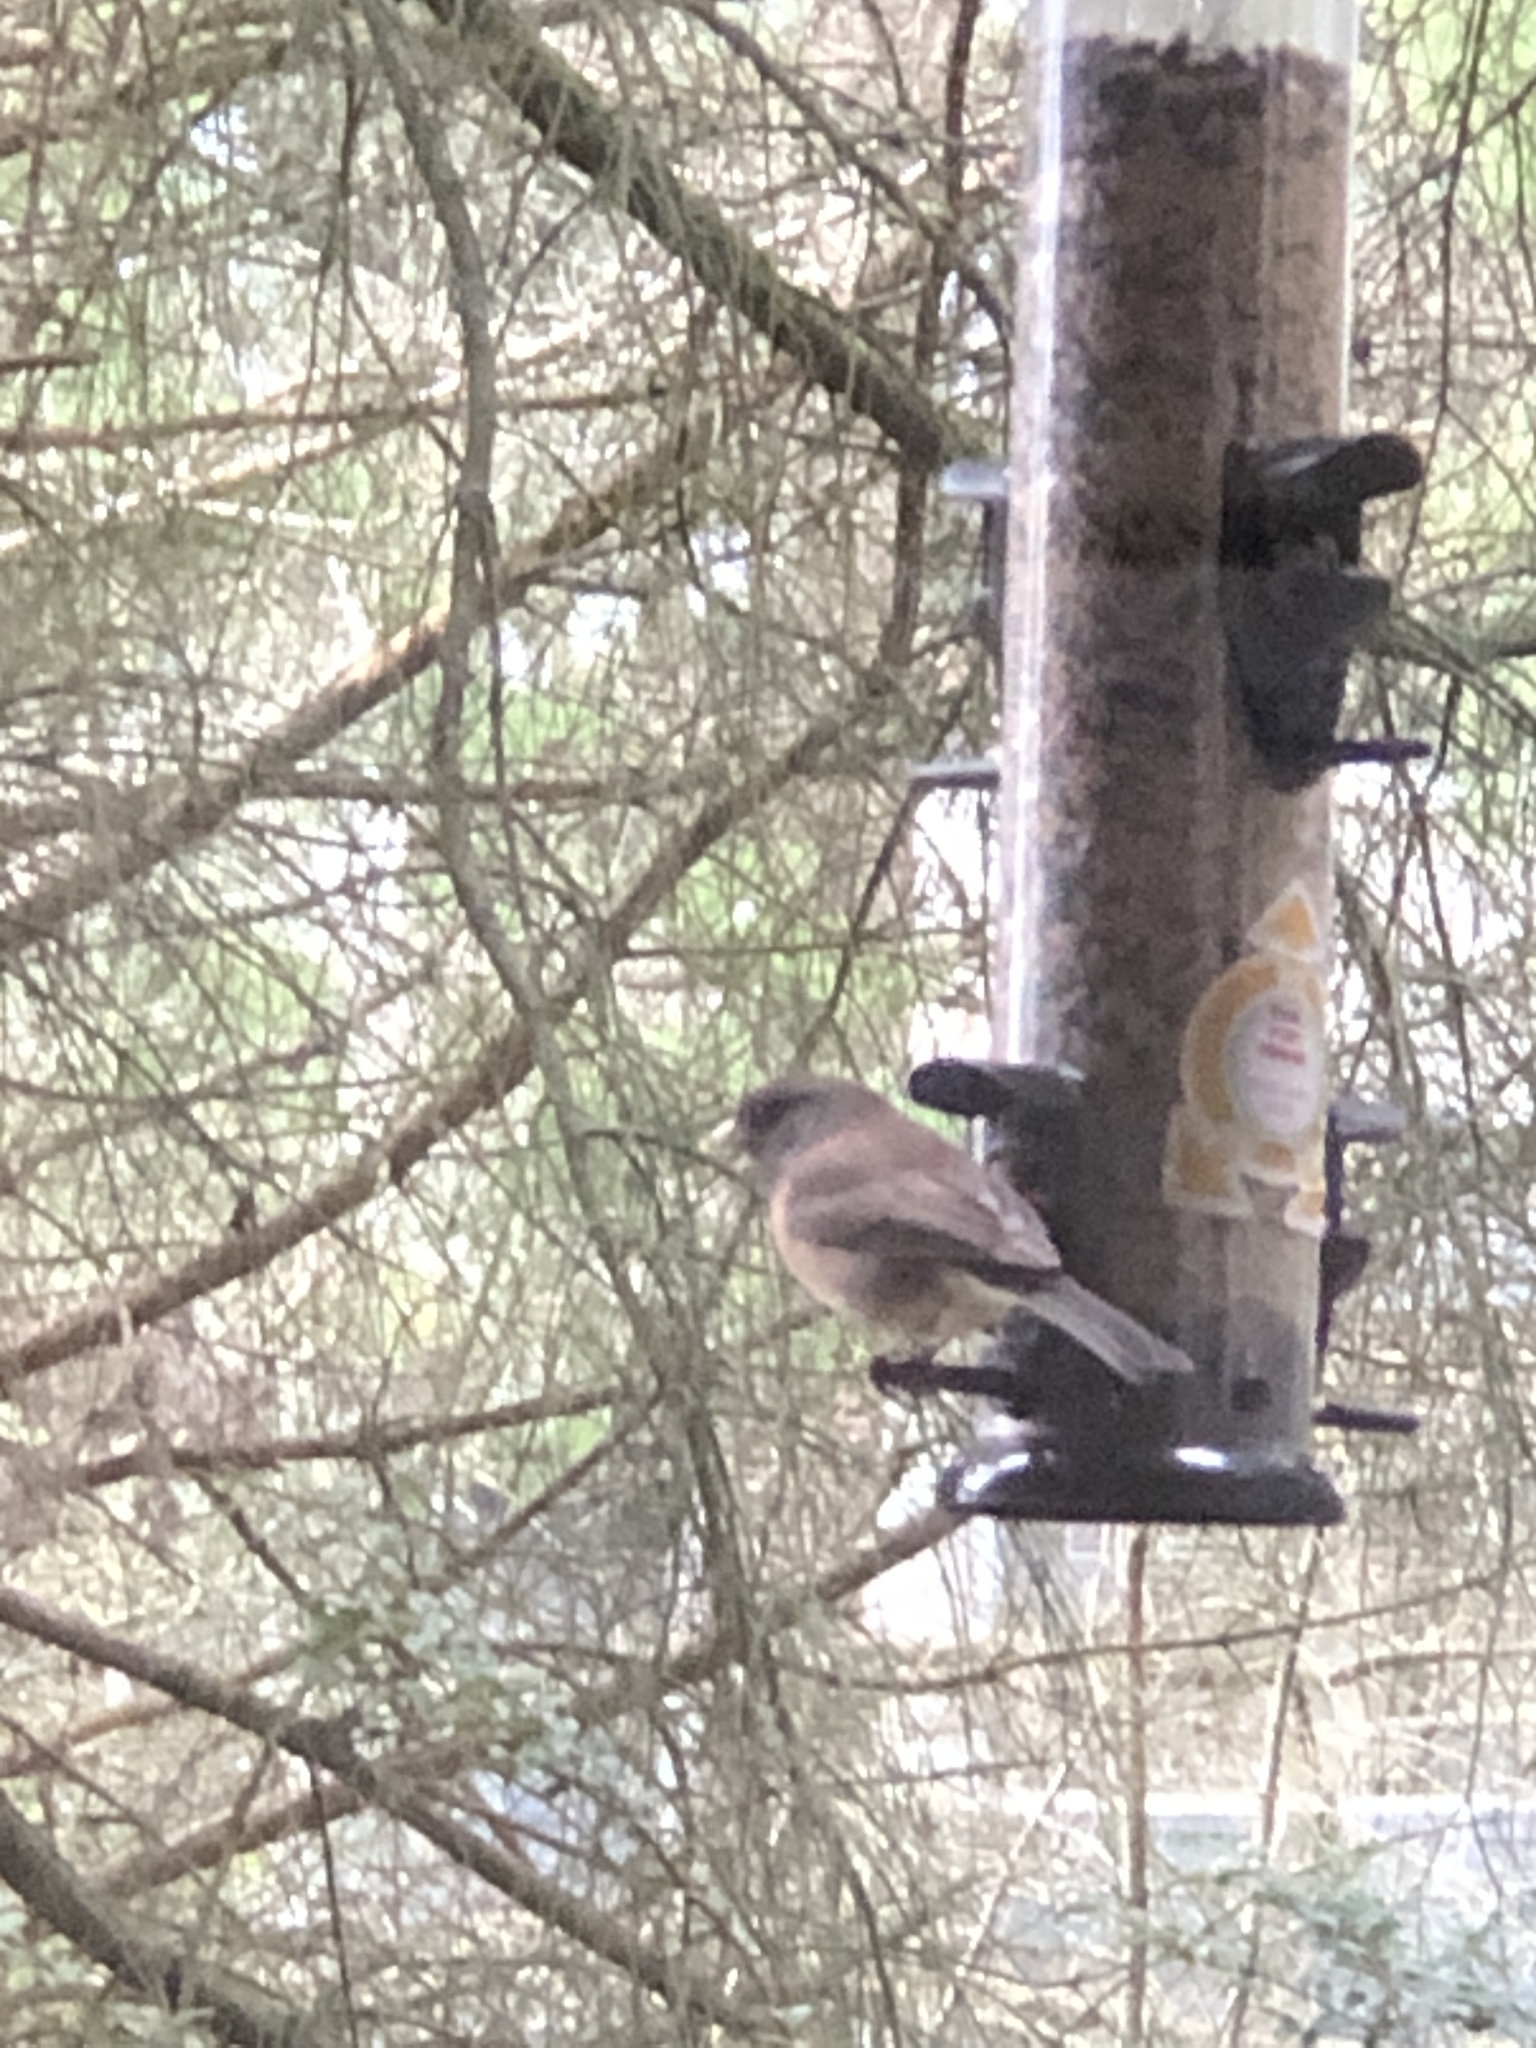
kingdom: Animalia
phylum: Chordata
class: Aves
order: Passeriformes
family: Passerellidae
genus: Junco
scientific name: Junco hyemalis
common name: Dark-eyed junco
